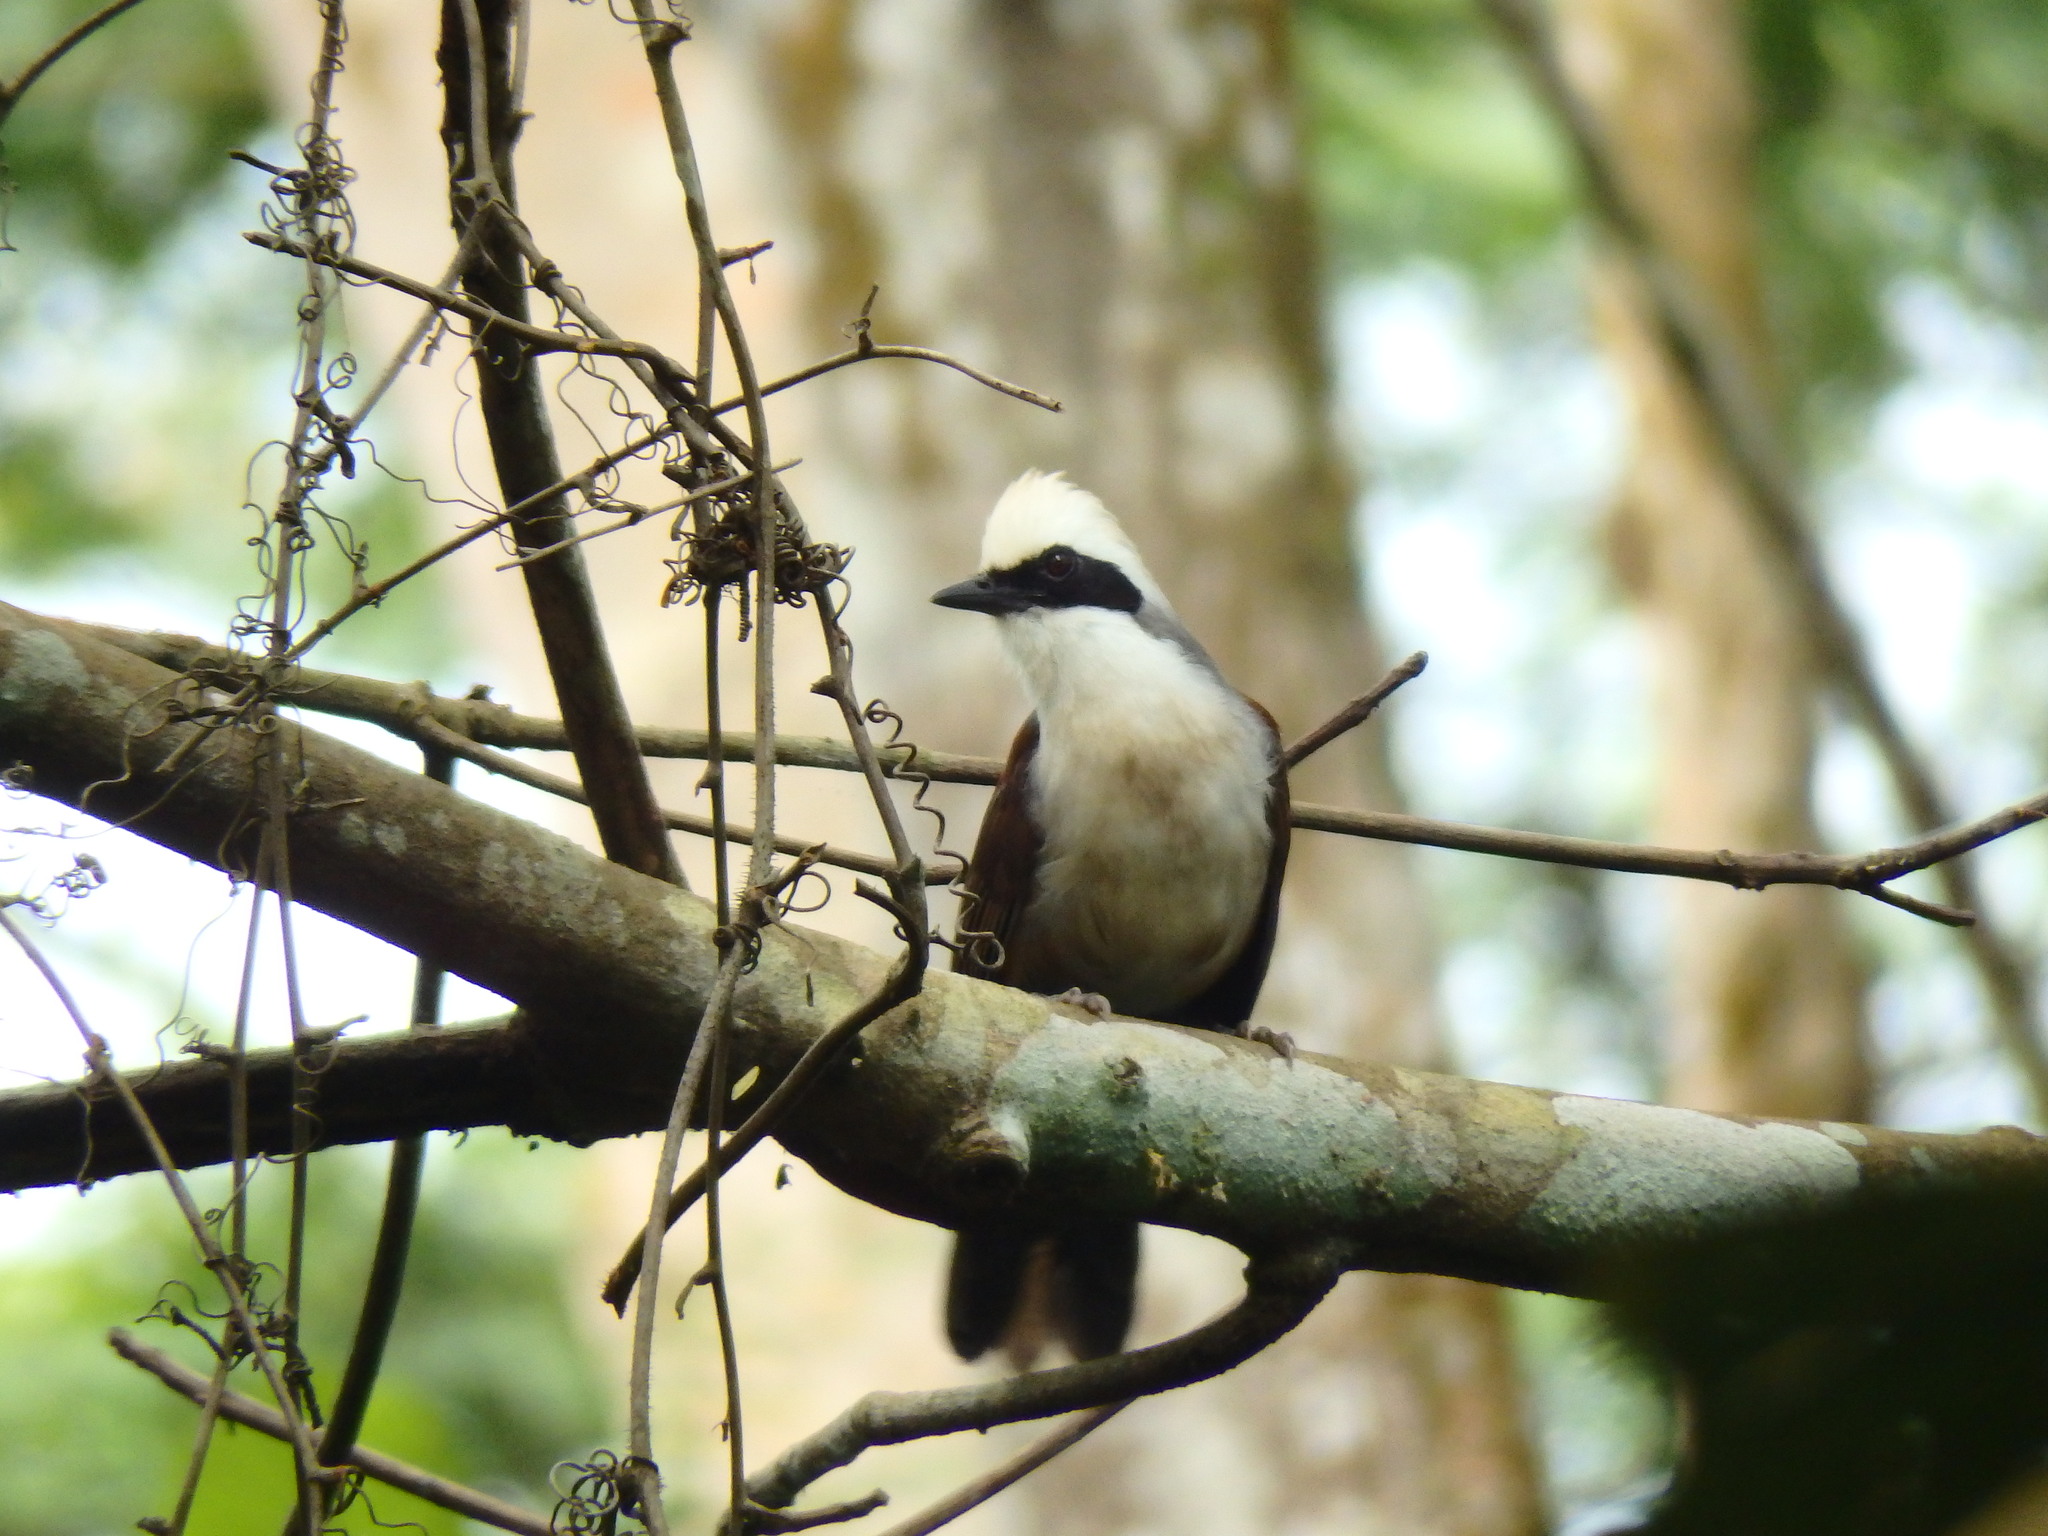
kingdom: Animalia
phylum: Chordata
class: Aves
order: Passeriformes
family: Leiothrichidae
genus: Garrulax
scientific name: Garrulax leucolophus
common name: White-crested laughingthrush
